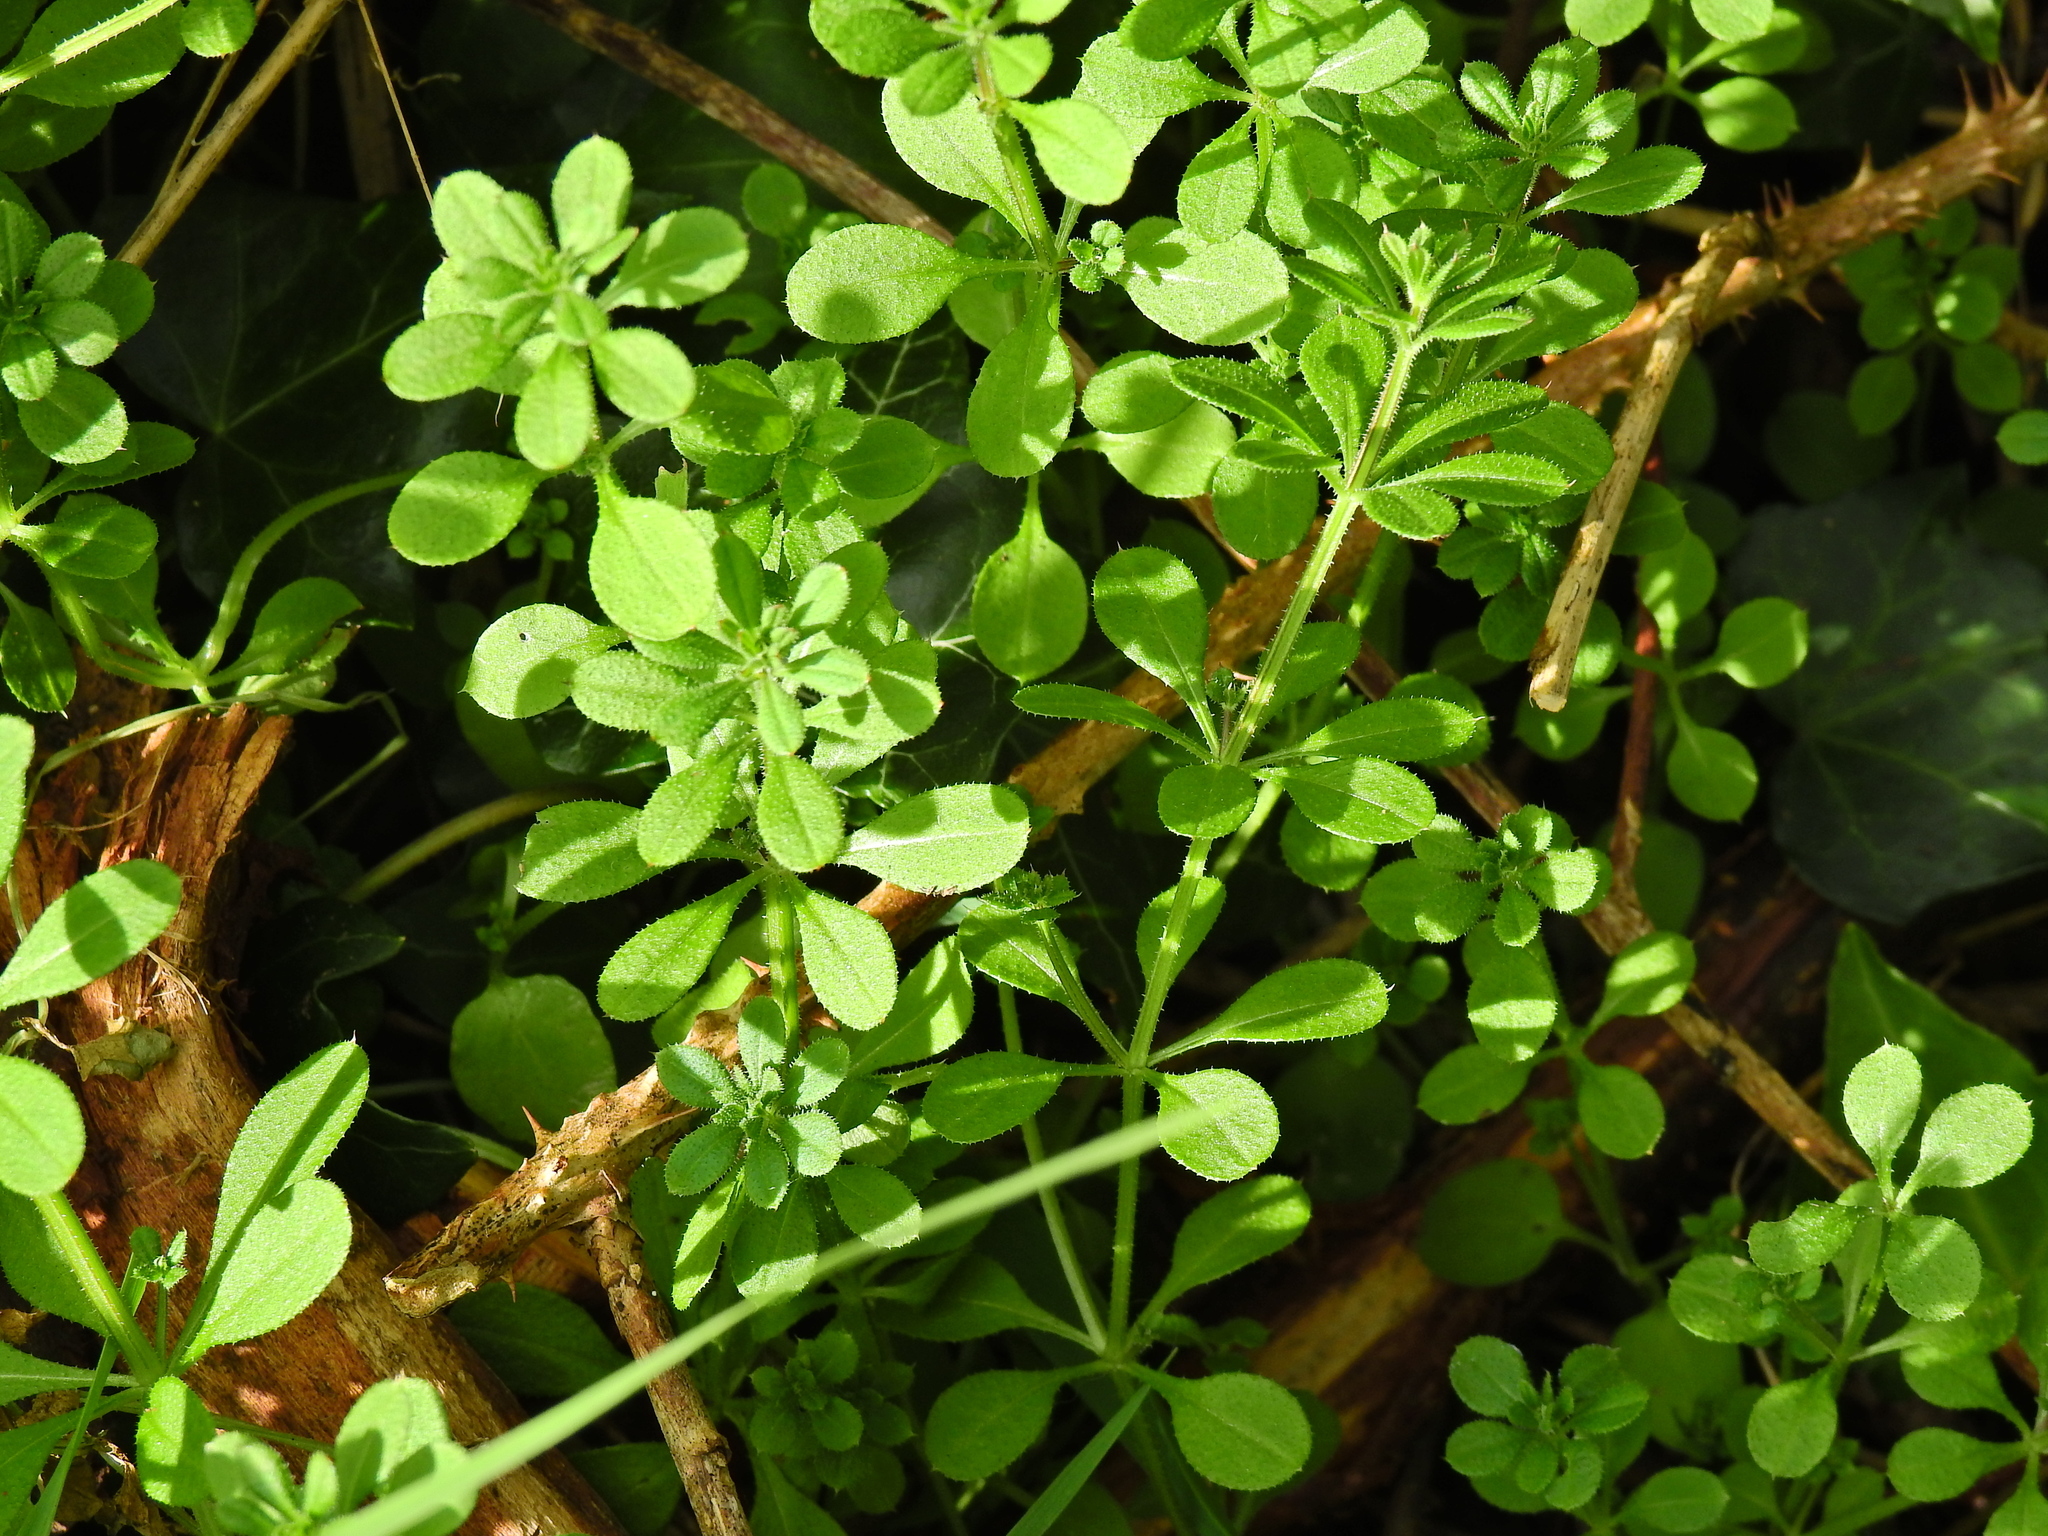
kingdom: Plantae
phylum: Tracheophyta
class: Magnoliopsida
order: Gentianales
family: Rubiaceae
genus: Galium
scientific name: Galium aparine
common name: Cleavers
